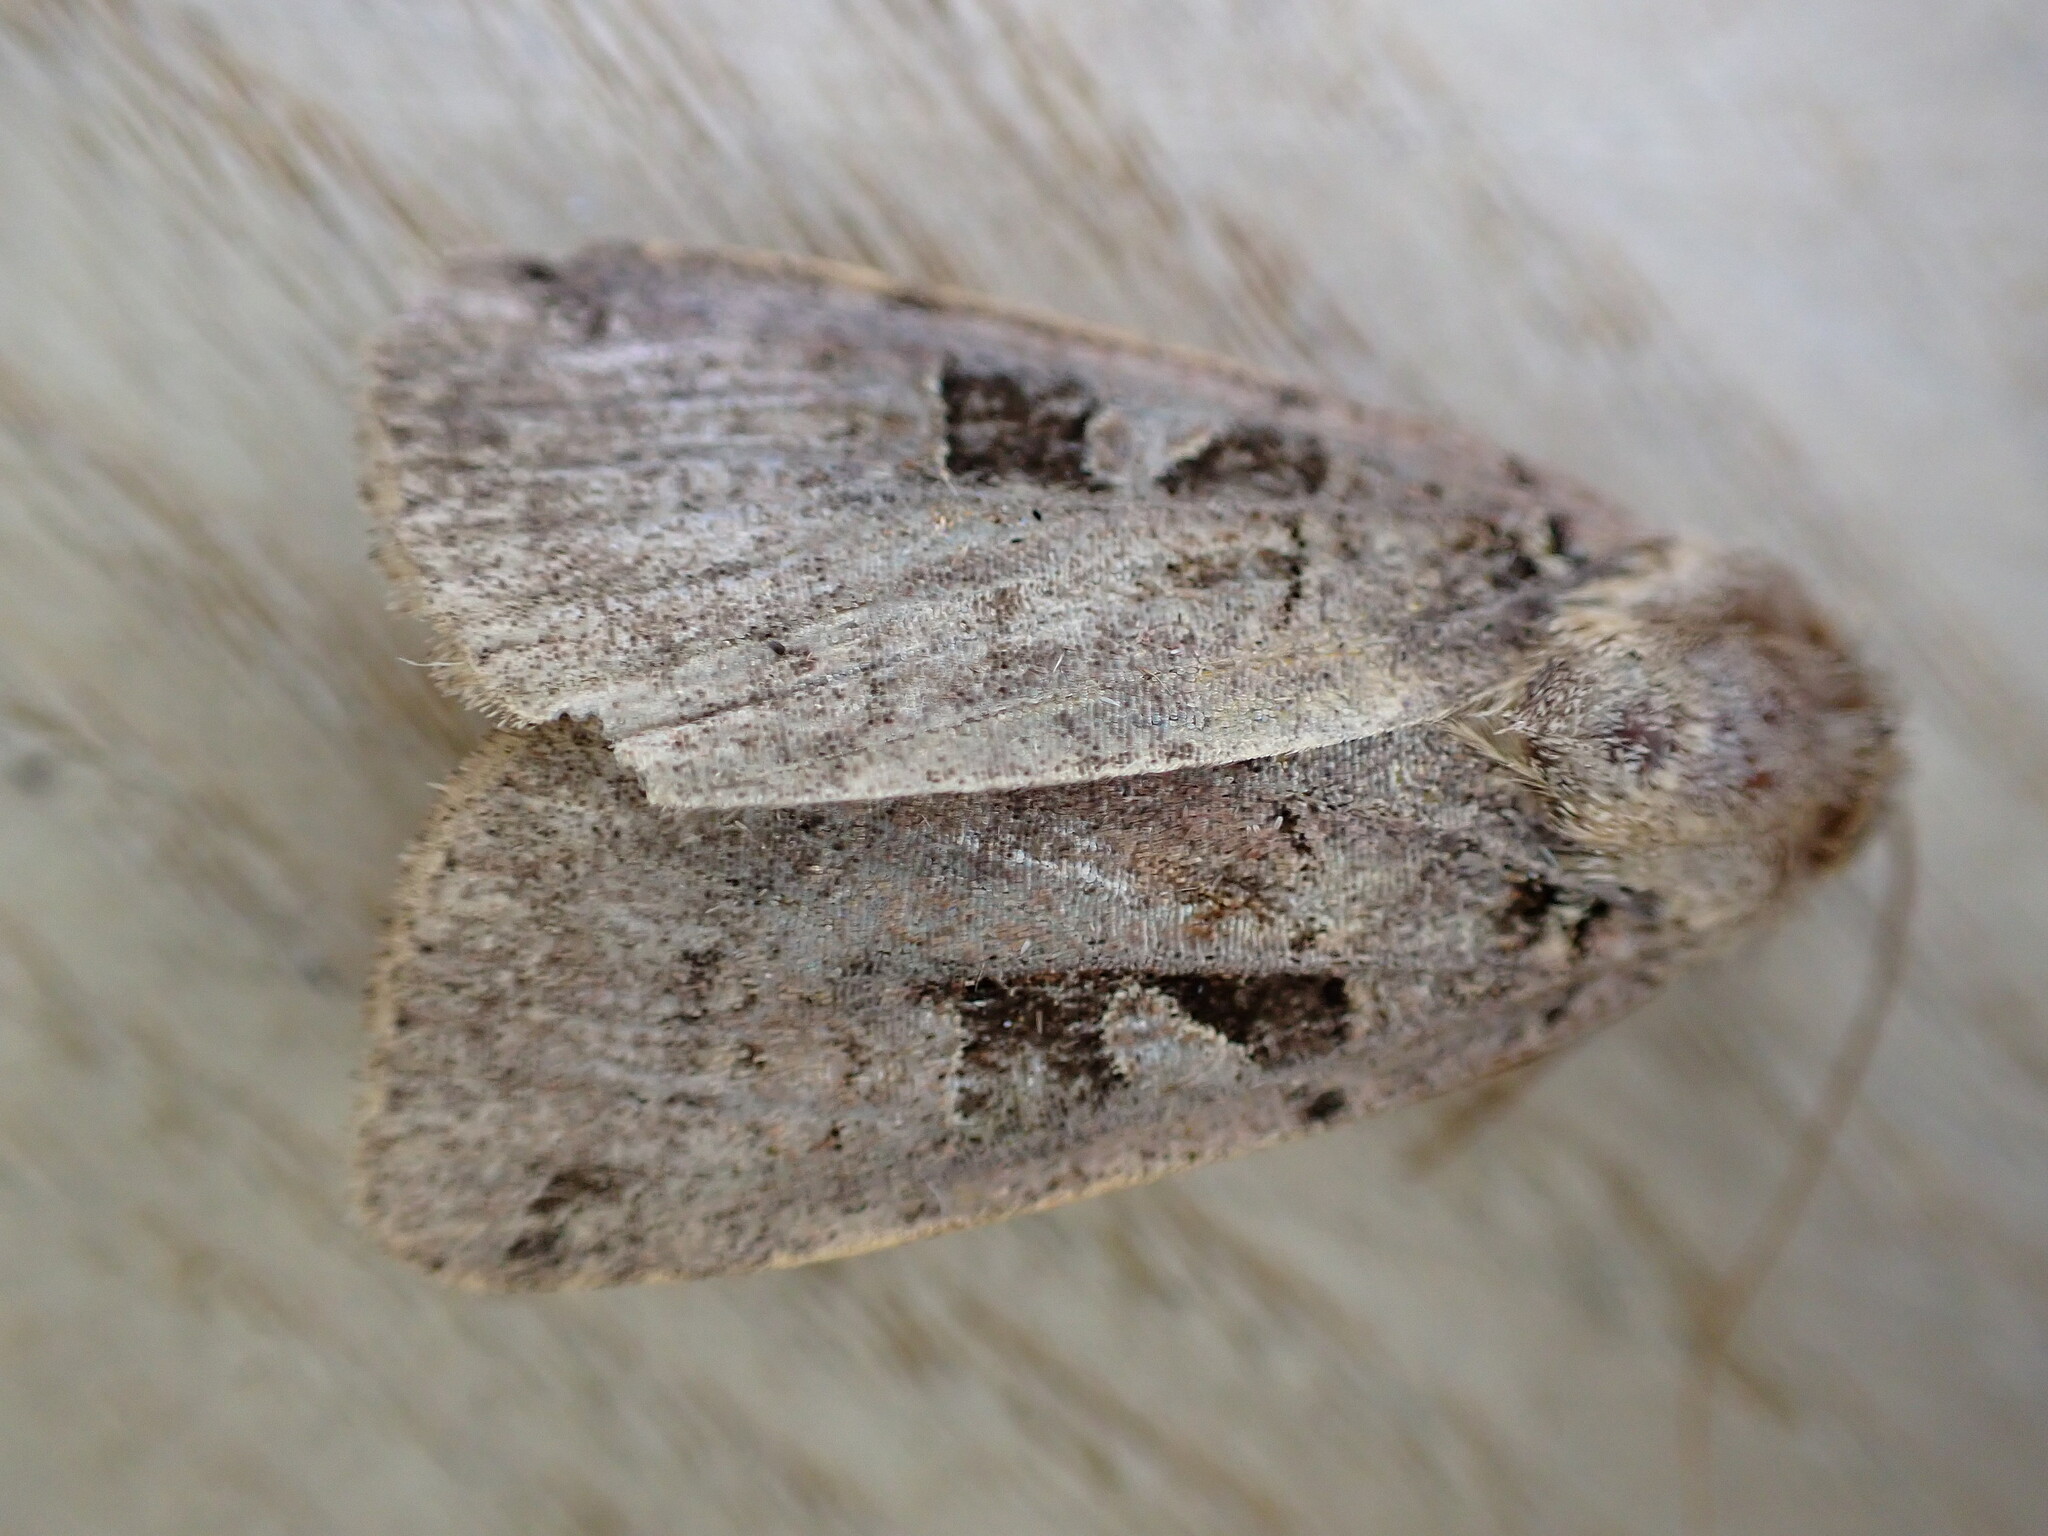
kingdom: Animalia
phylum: Arthropoda
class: Insecta
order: Lepidoptera
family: Noctuidae
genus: Xestia
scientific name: Xestia triangulum
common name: Double square-spot
